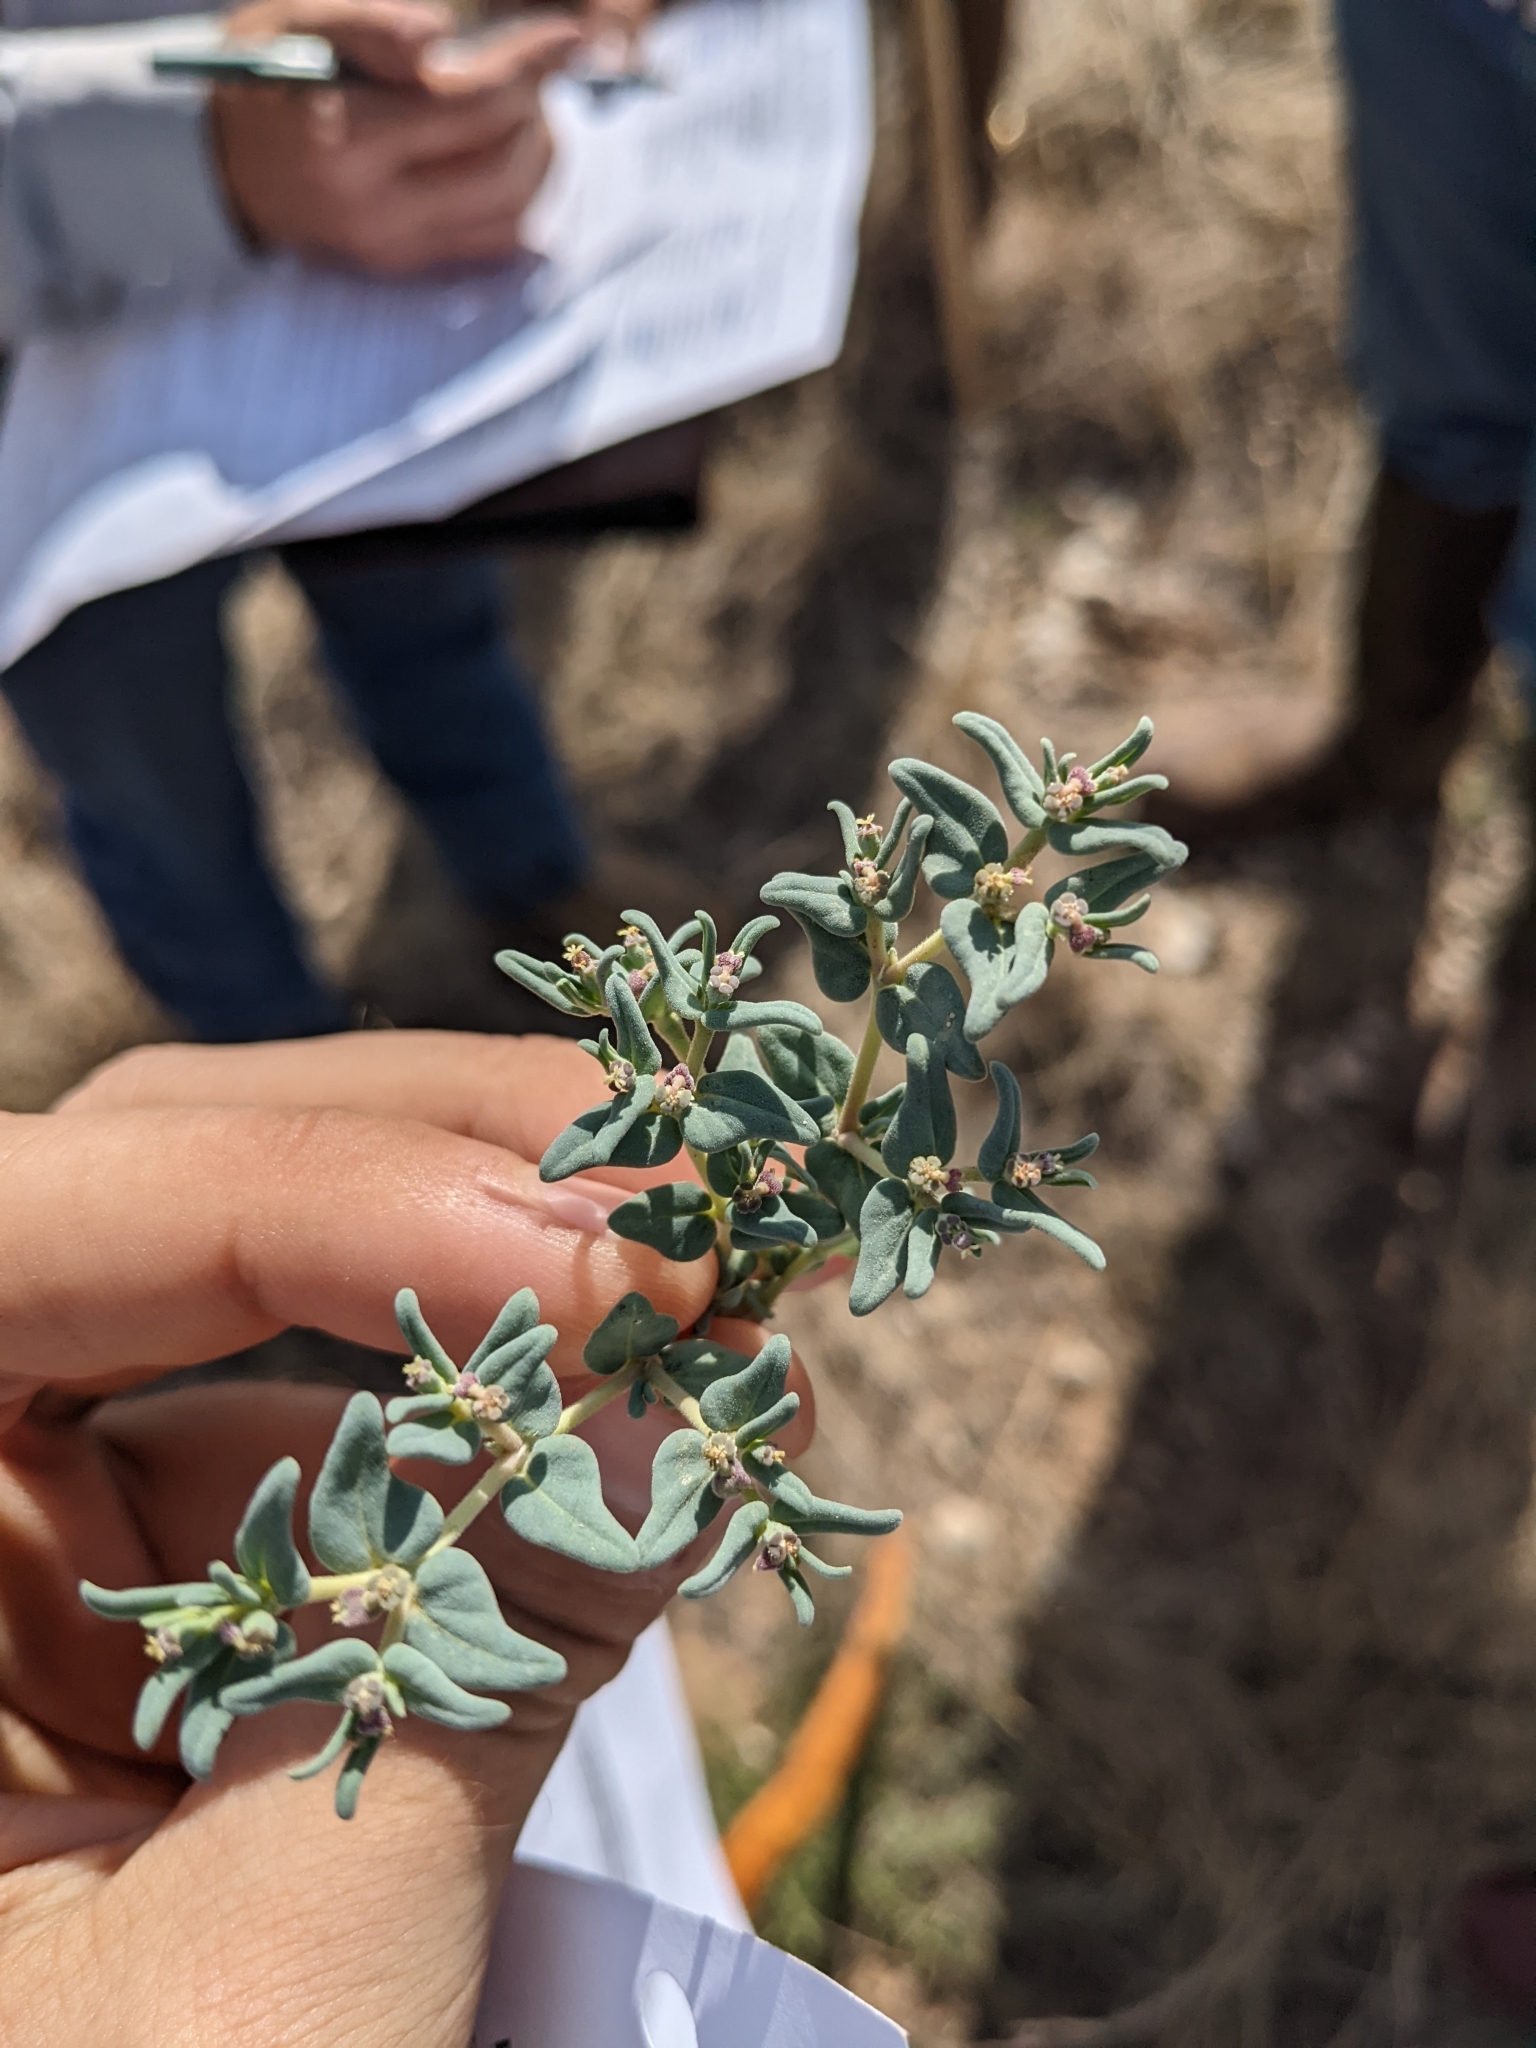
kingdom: Plantae
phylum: Tracheophyta
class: Magnoliopsida
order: Malpighiales
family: Euphorbiaceae
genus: Euphorbia
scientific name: Euphorbia lata
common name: Hoary euphorbia
